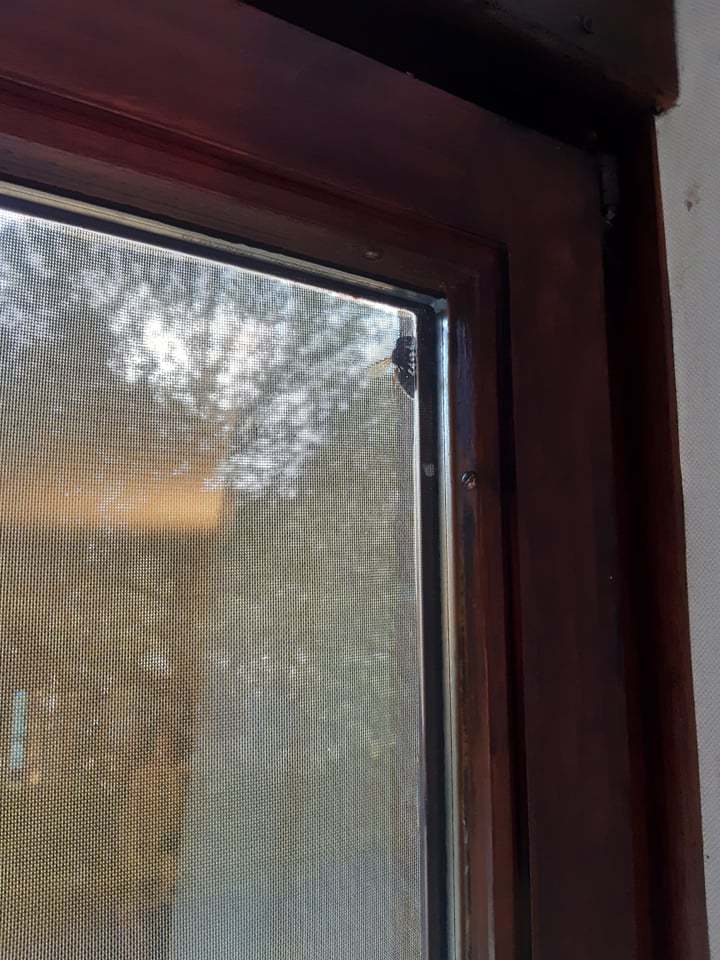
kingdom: Animalia
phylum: Arthropoda
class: Insecta
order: Hymenoptera
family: Vespidae
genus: Vespa
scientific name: Vespa crabro
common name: Hornet
